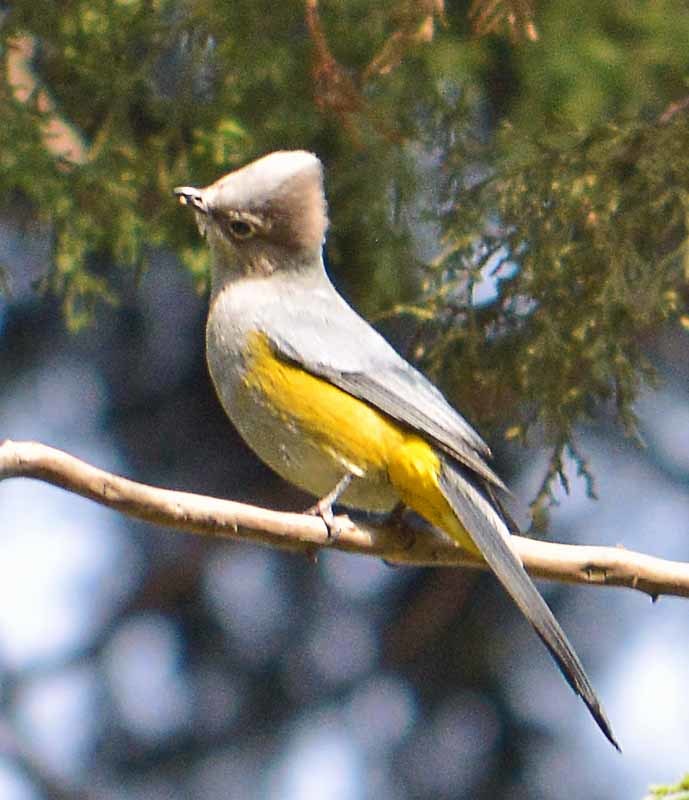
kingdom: Animalia
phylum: Chordata
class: Aves
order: Passeriformes
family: Ptilogonatidae
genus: Ptilogonys
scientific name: Ptilogonys cinereus
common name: Gray silky-flycatcher
